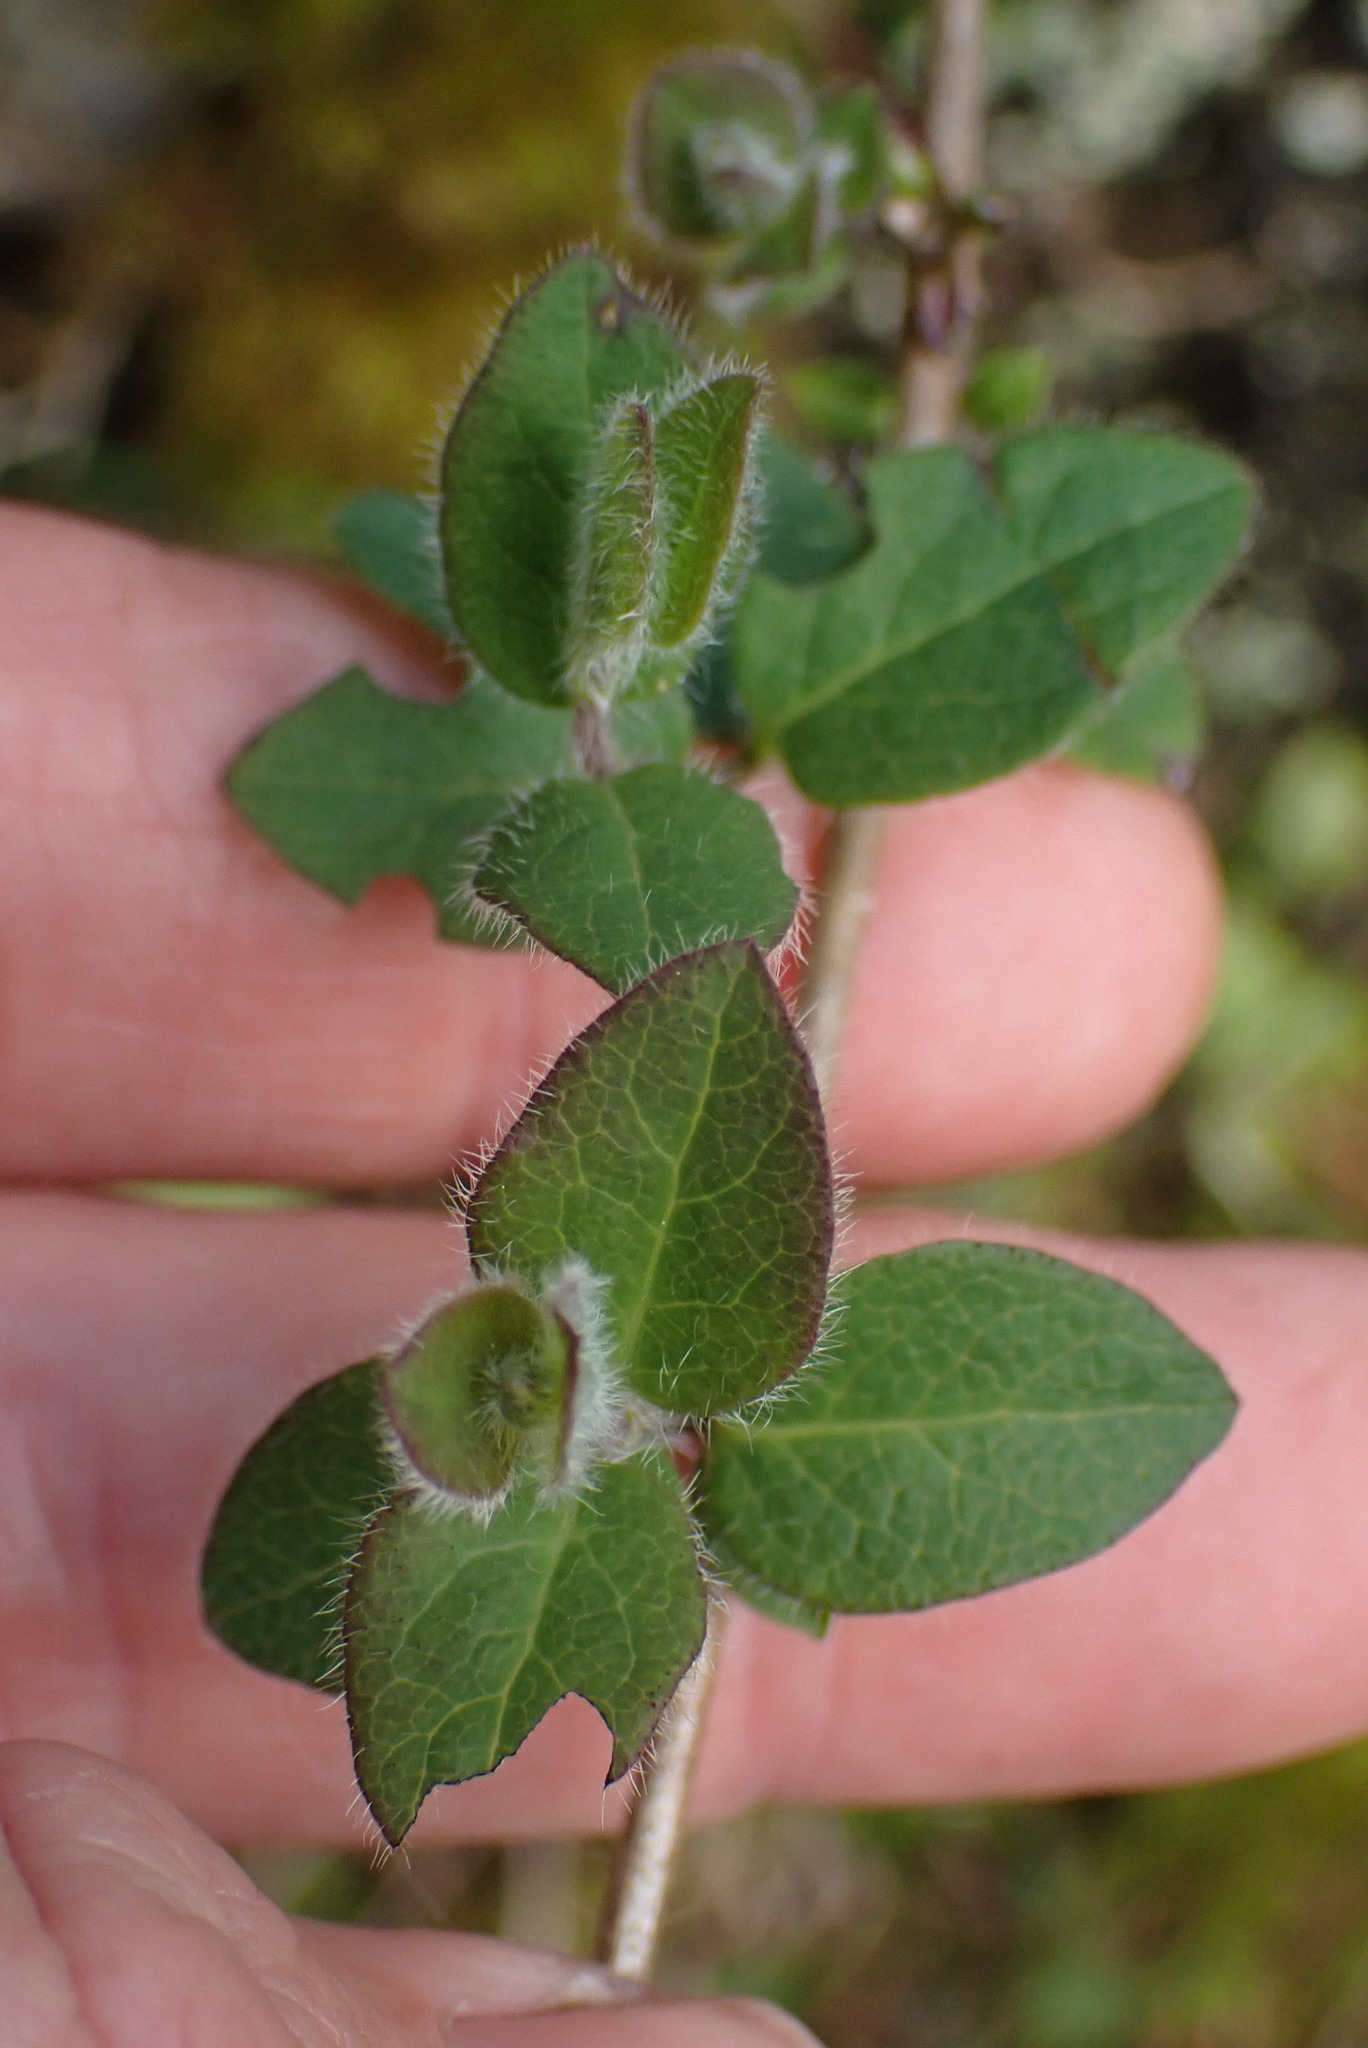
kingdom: Plantae
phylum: Tracheophyta
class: Magnoliopsida
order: Dipsacales
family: Caprifoliaceae
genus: Lonicera
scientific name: Lonicera hispidula
